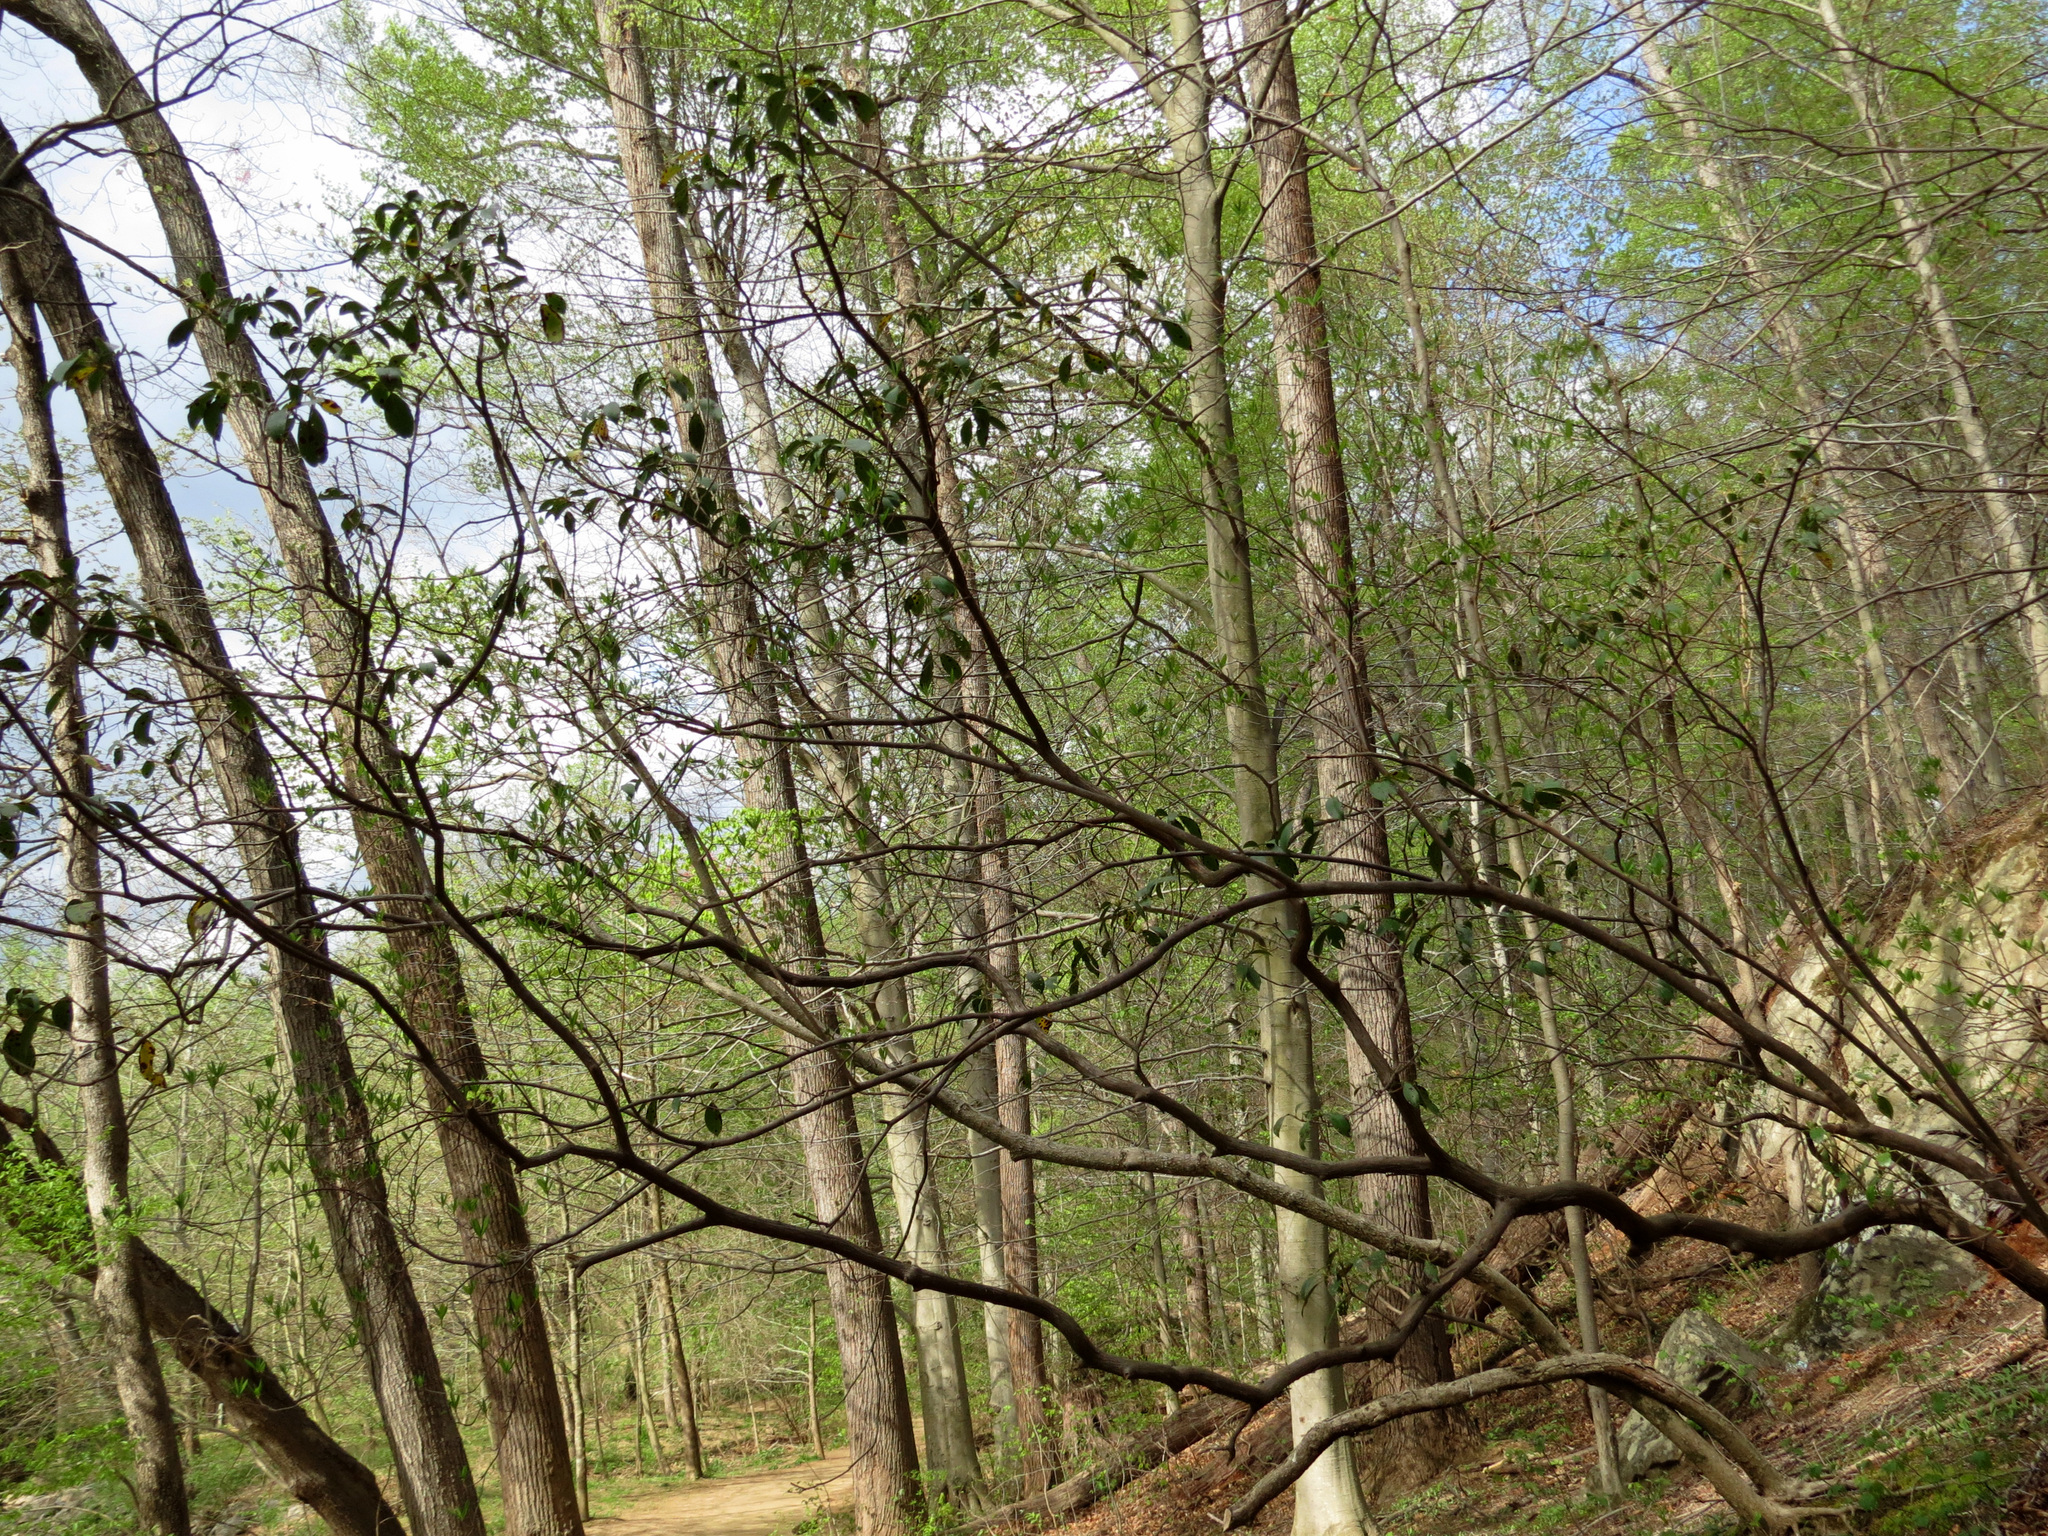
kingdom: Plantae
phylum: Tracheophyta
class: Magnoliopsida
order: Ericales
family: Ericaceae
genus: Kalmia
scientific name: Kalmia latifolia
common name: Mountain-laurel
